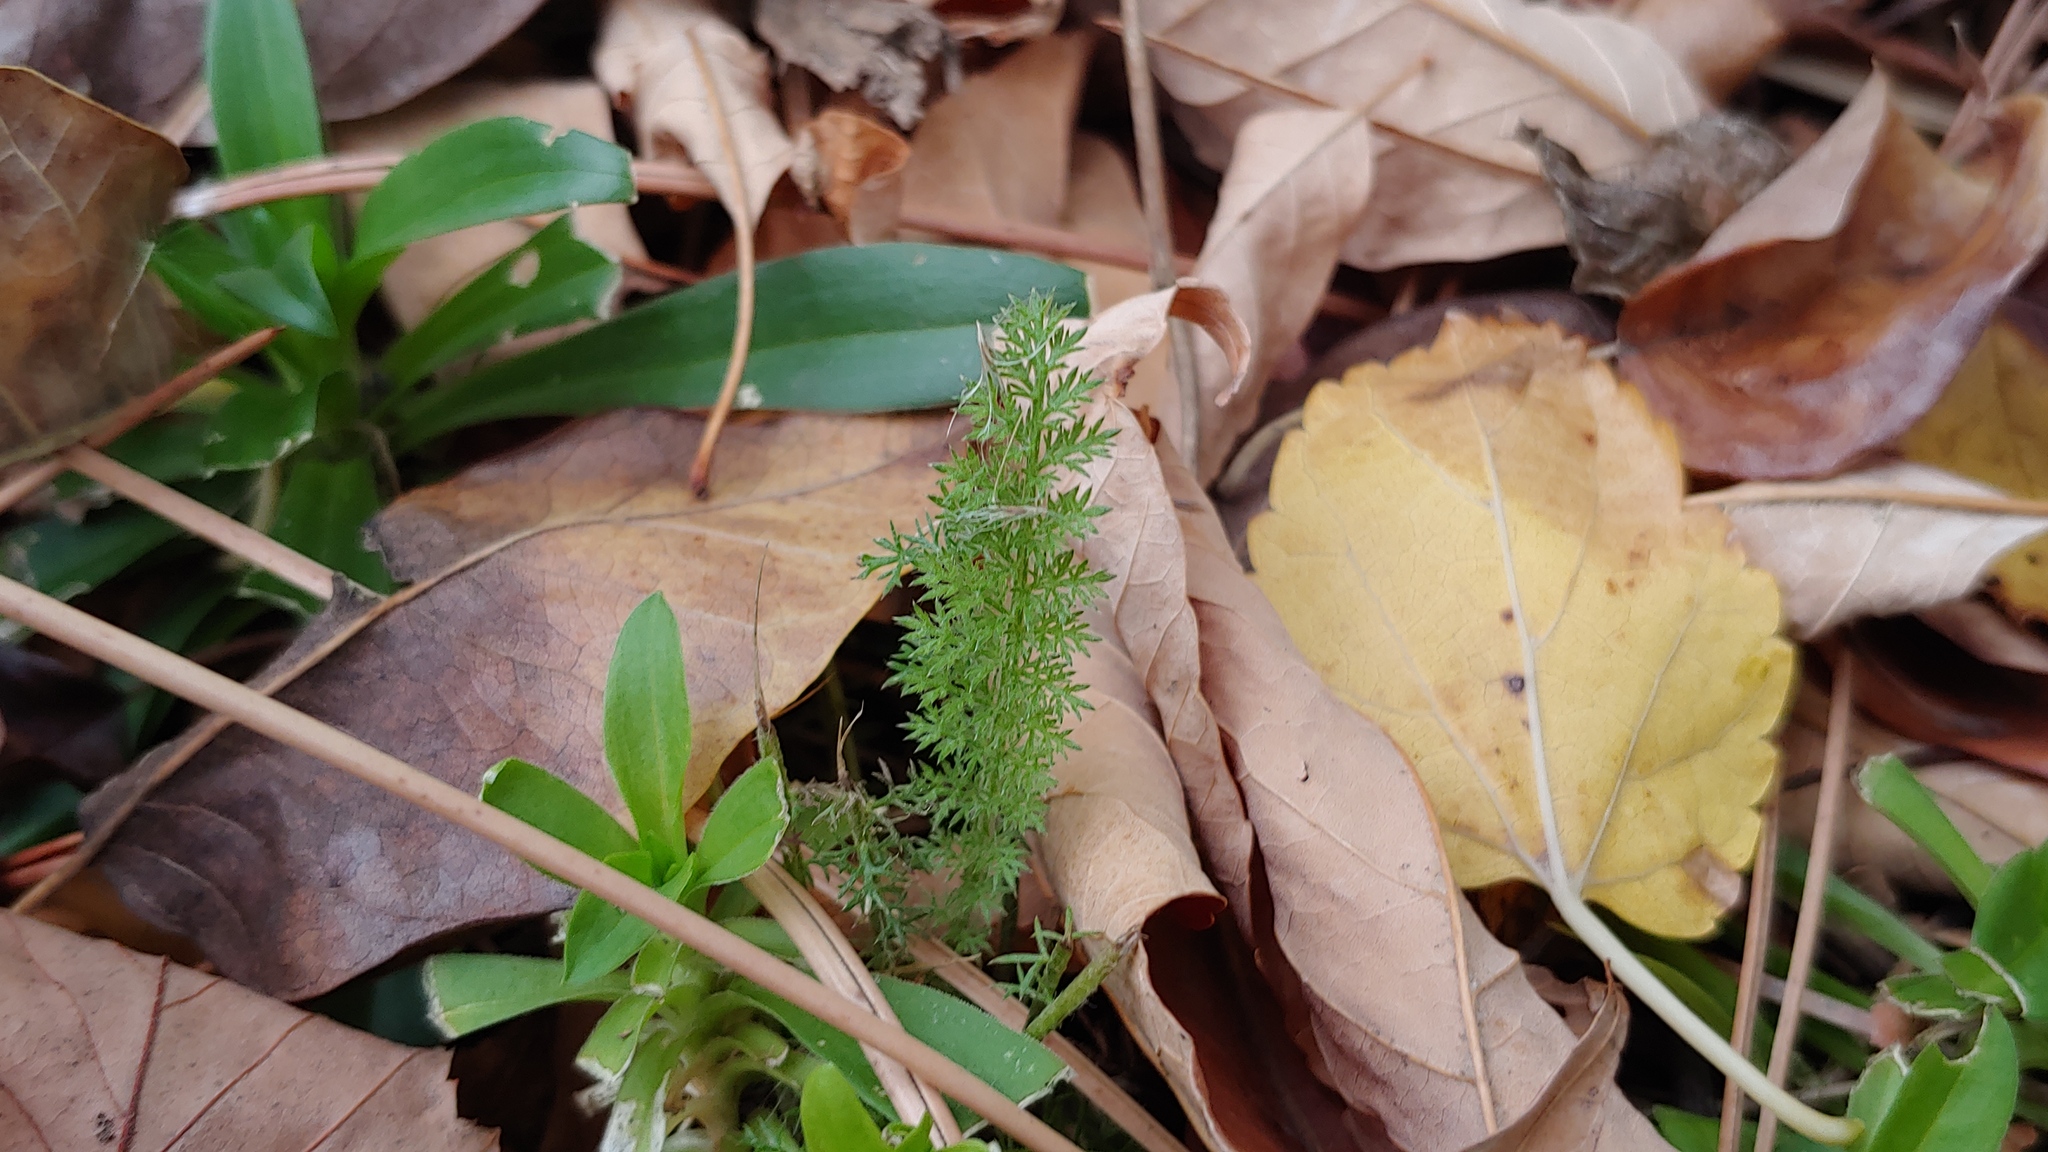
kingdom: Plantae
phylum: Tracheophyta
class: Magnoliopsida
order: Asterales
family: Asteraceae
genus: Achillea
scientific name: Achillea millefolium
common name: Yarrow
